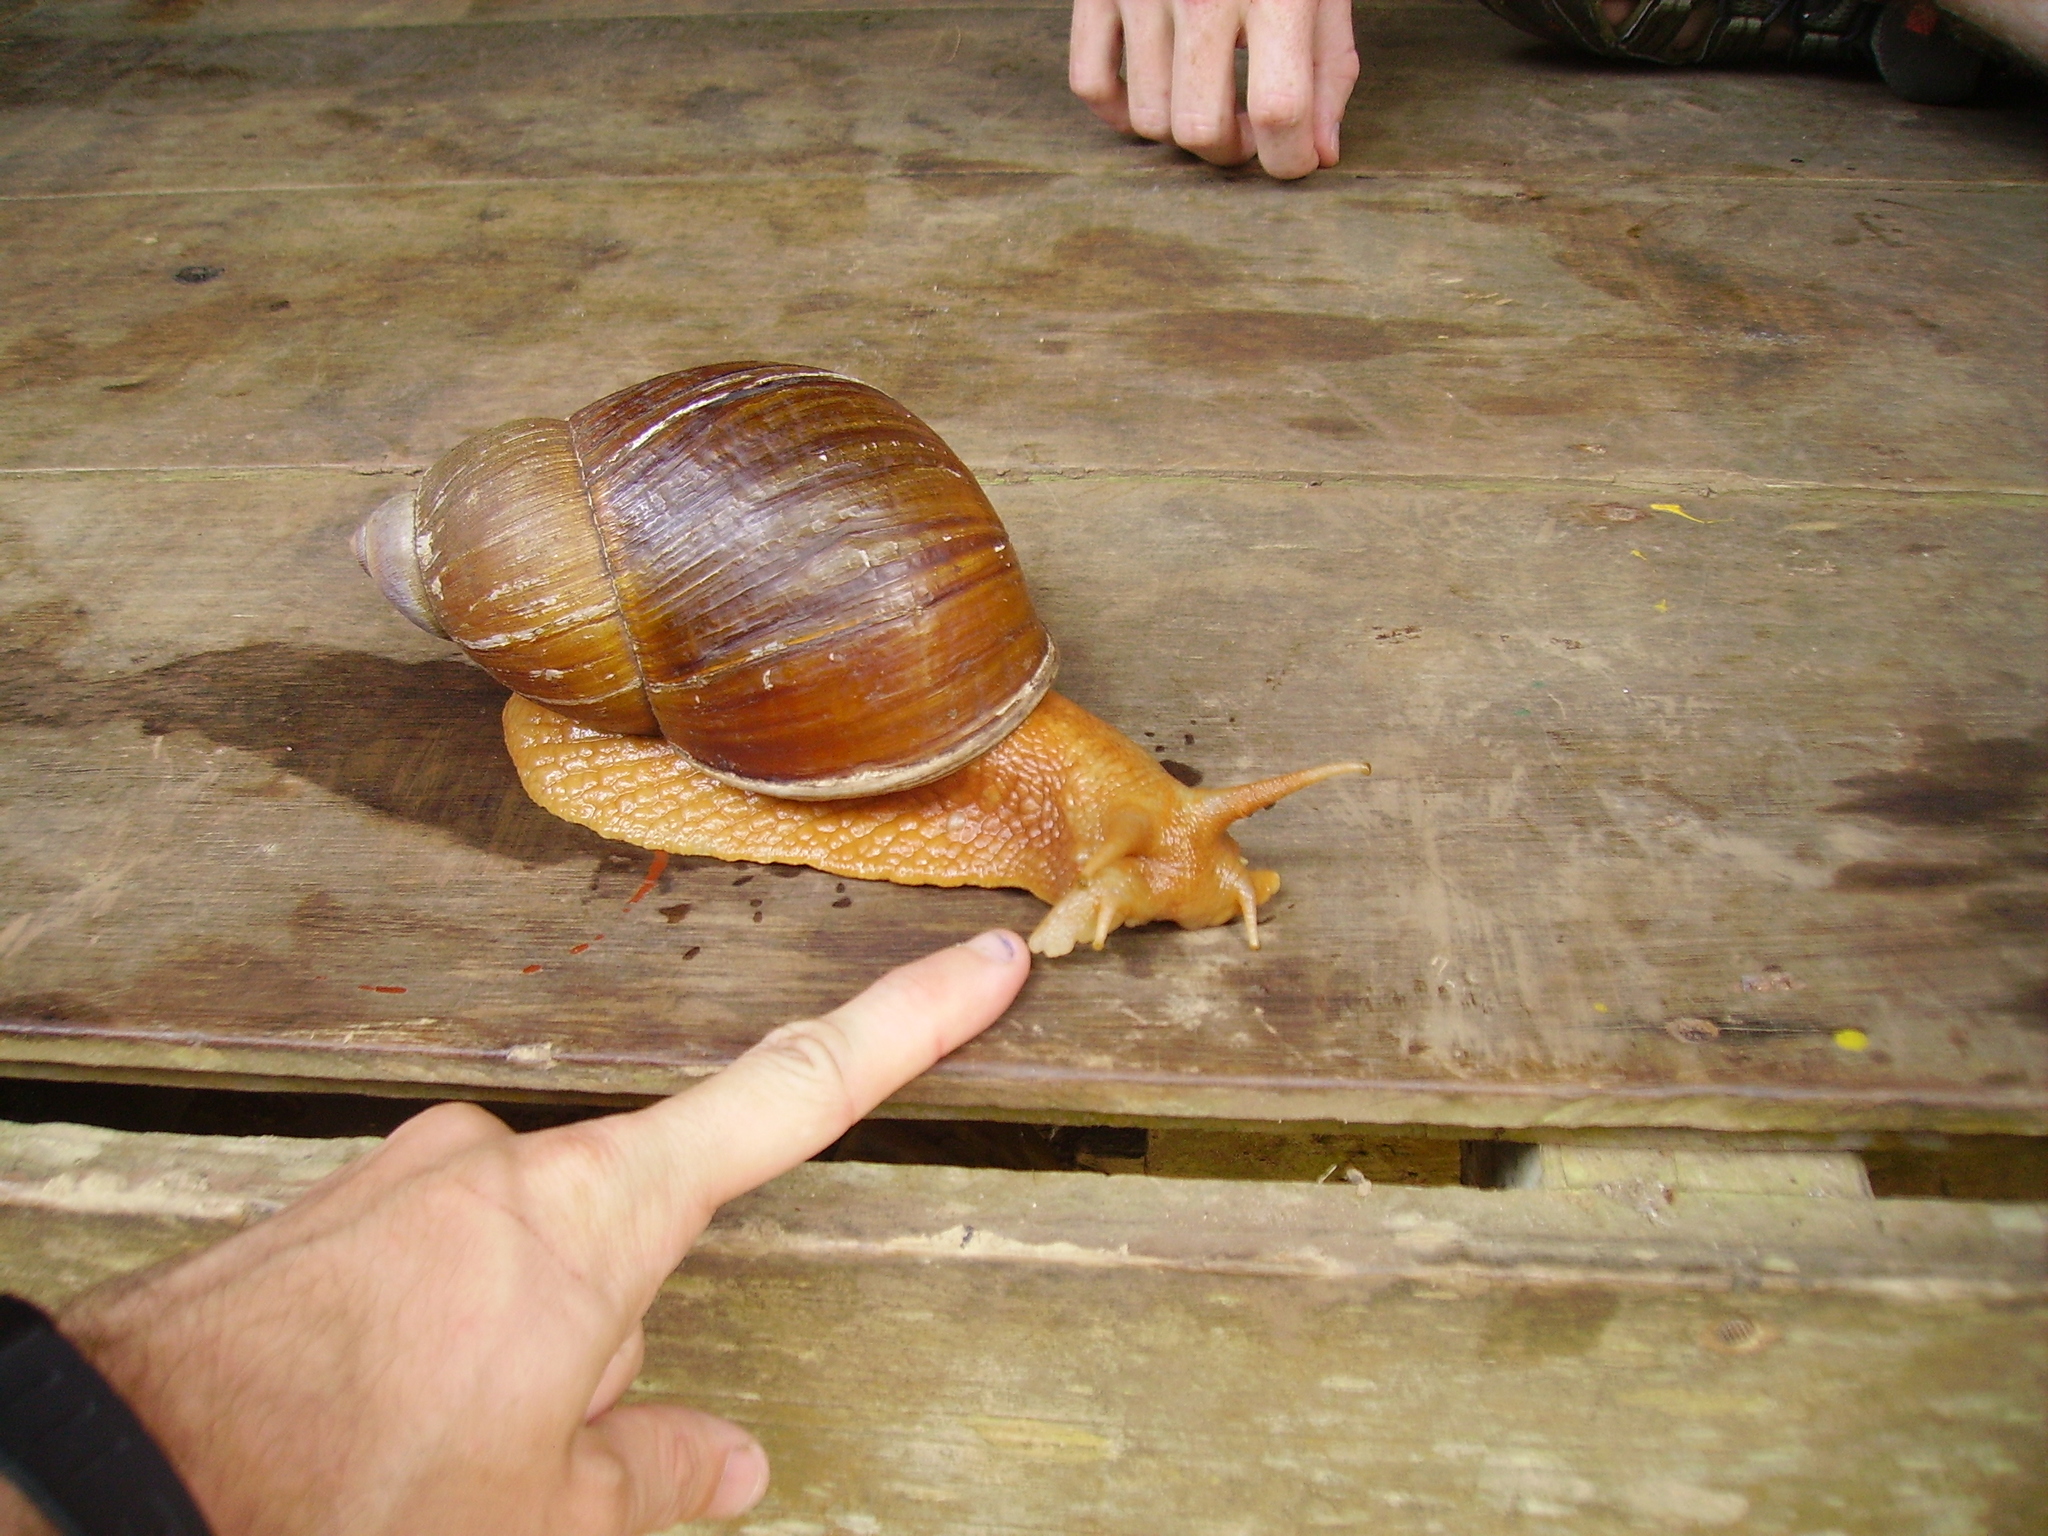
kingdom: Animalia
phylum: Mollusca
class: Gastropoda
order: Stylommatophora
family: Strophocheilidae
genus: Megalobulimus
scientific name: Megalobulimus popelairianus
